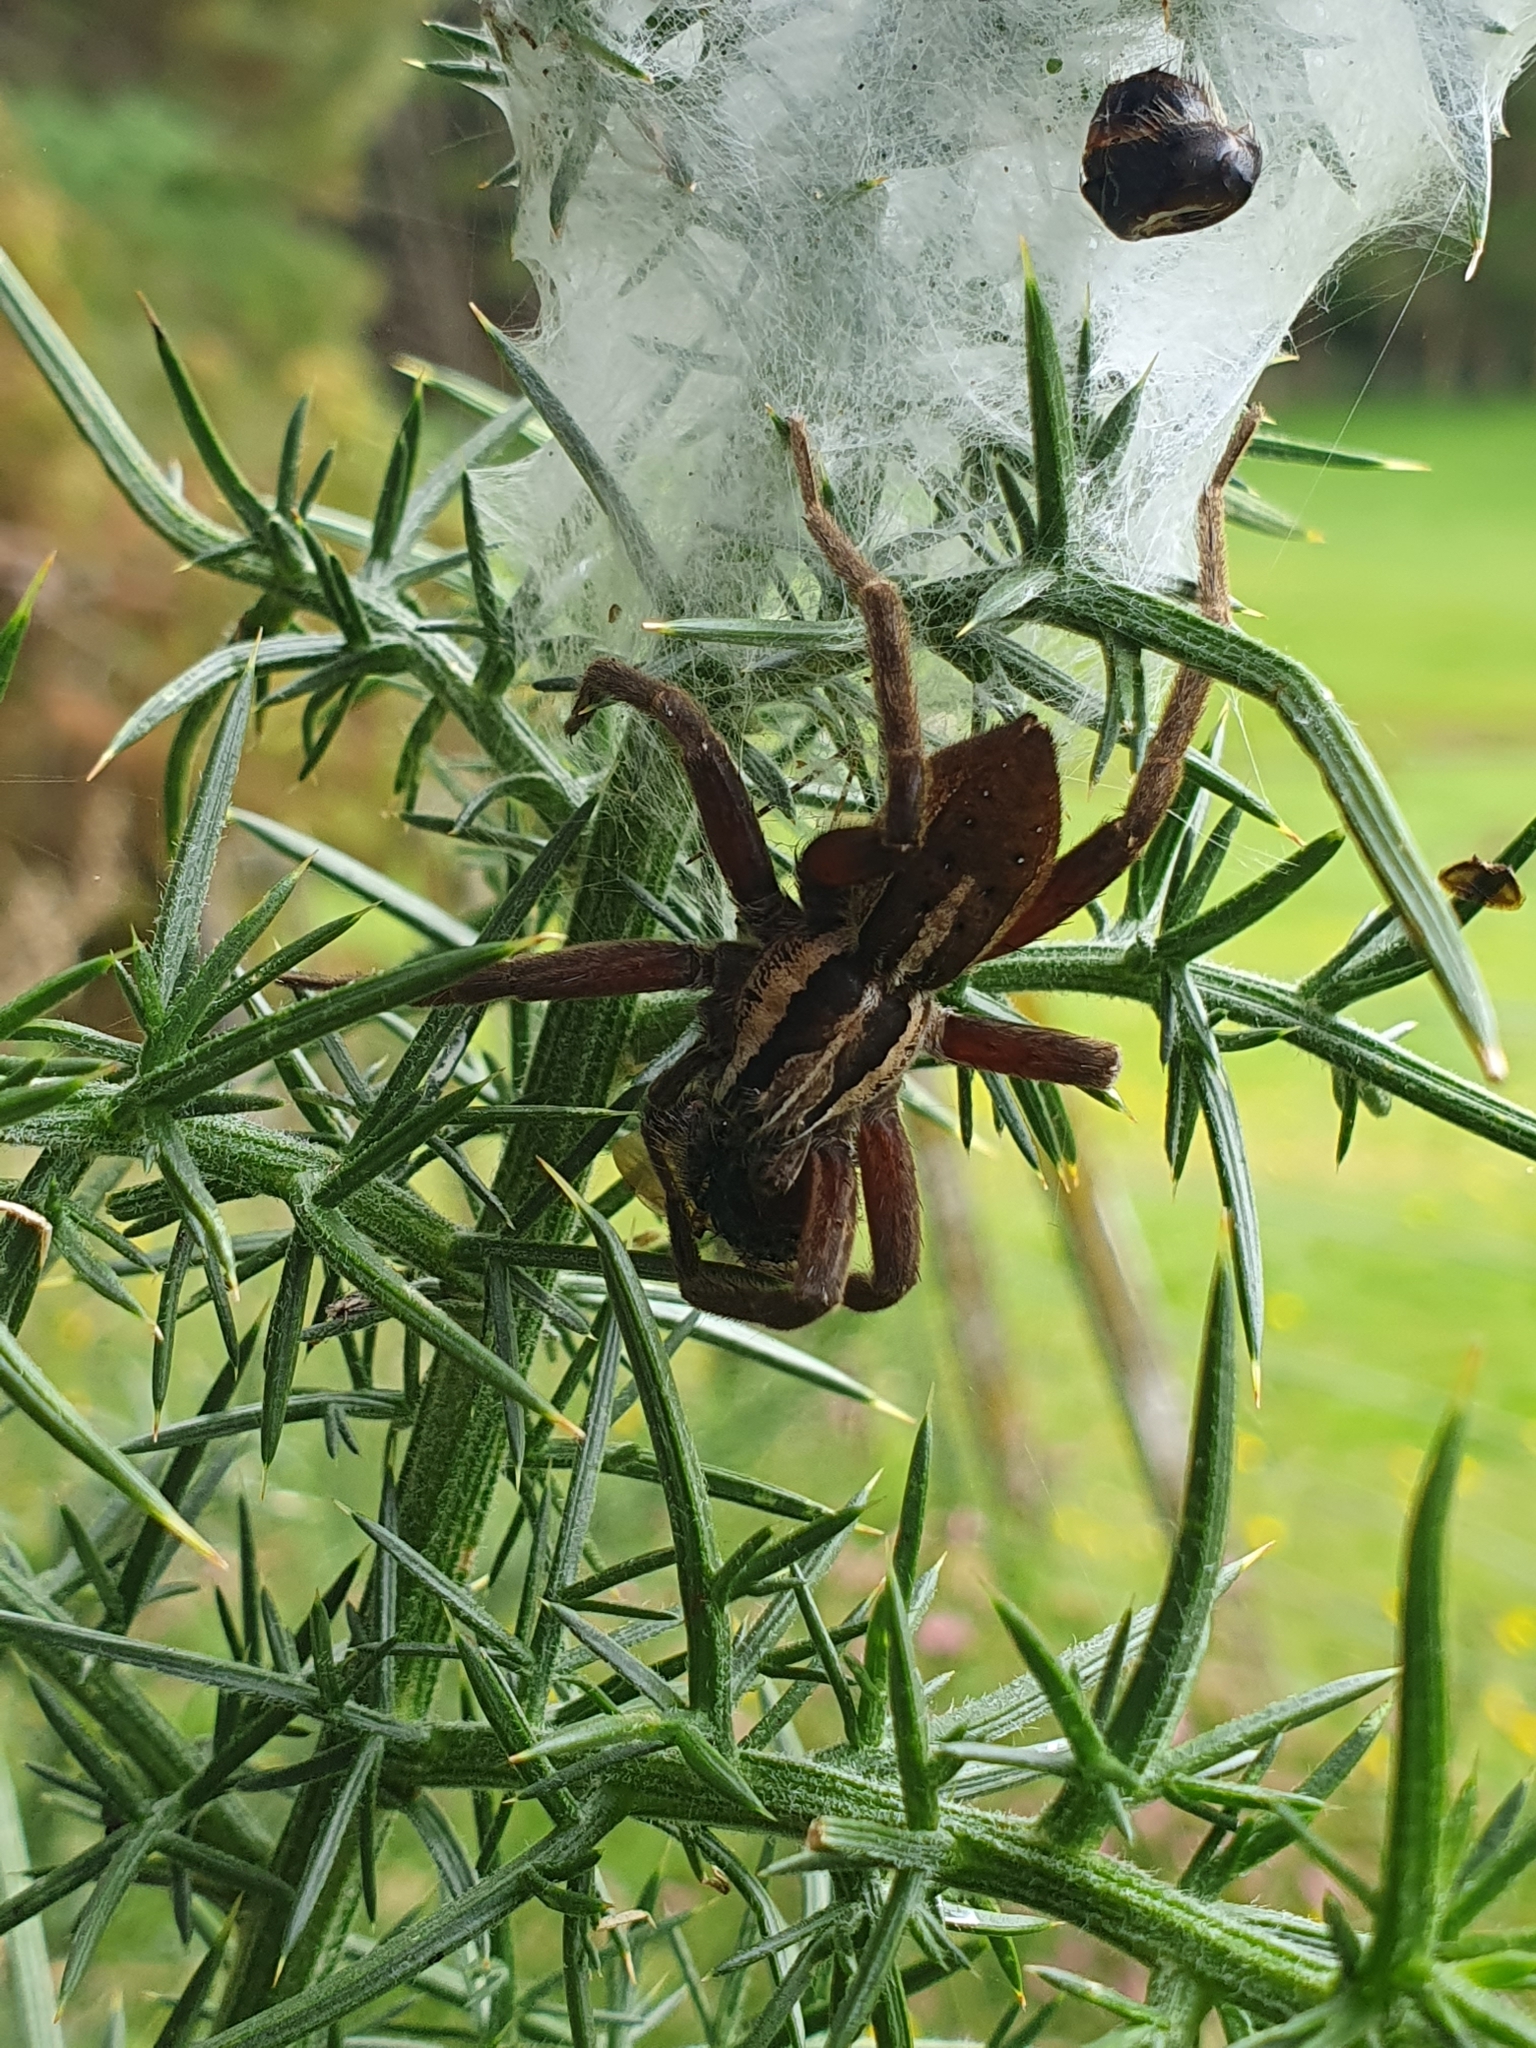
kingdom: Animalia
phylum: Arthropoda
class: Arachnida
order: Araneae
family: Pisauridae
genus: Dolomedes
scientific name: Dolomedes minor
